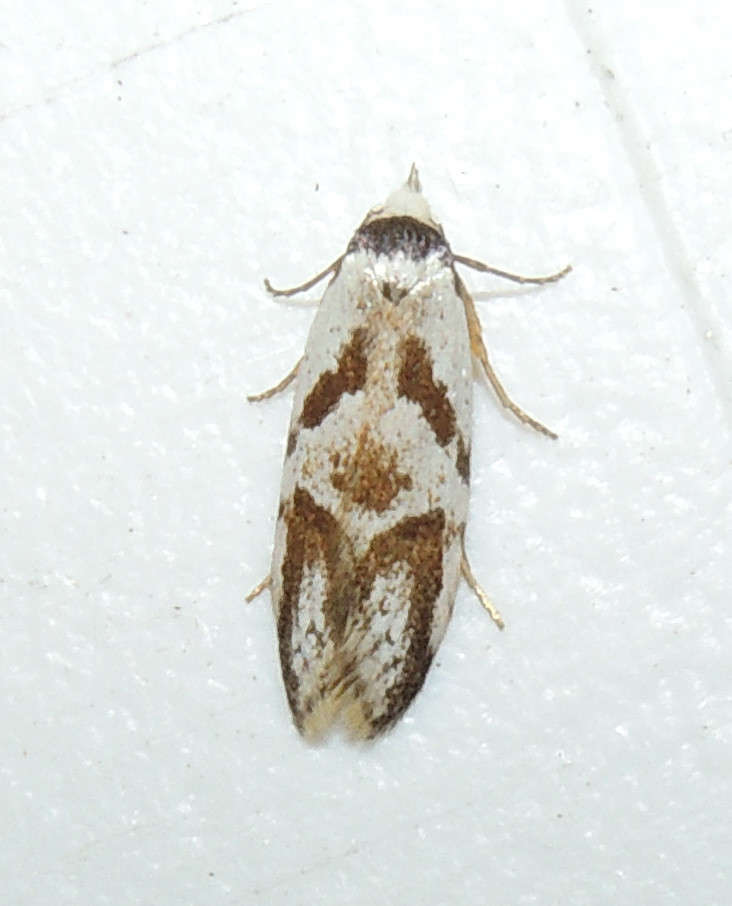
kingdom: Animalia
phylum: Arthropoda
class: Insecta
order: Lepidoptera
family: Oecophoridae
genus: Oxythecta
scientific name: Oxythecta lygrosema
